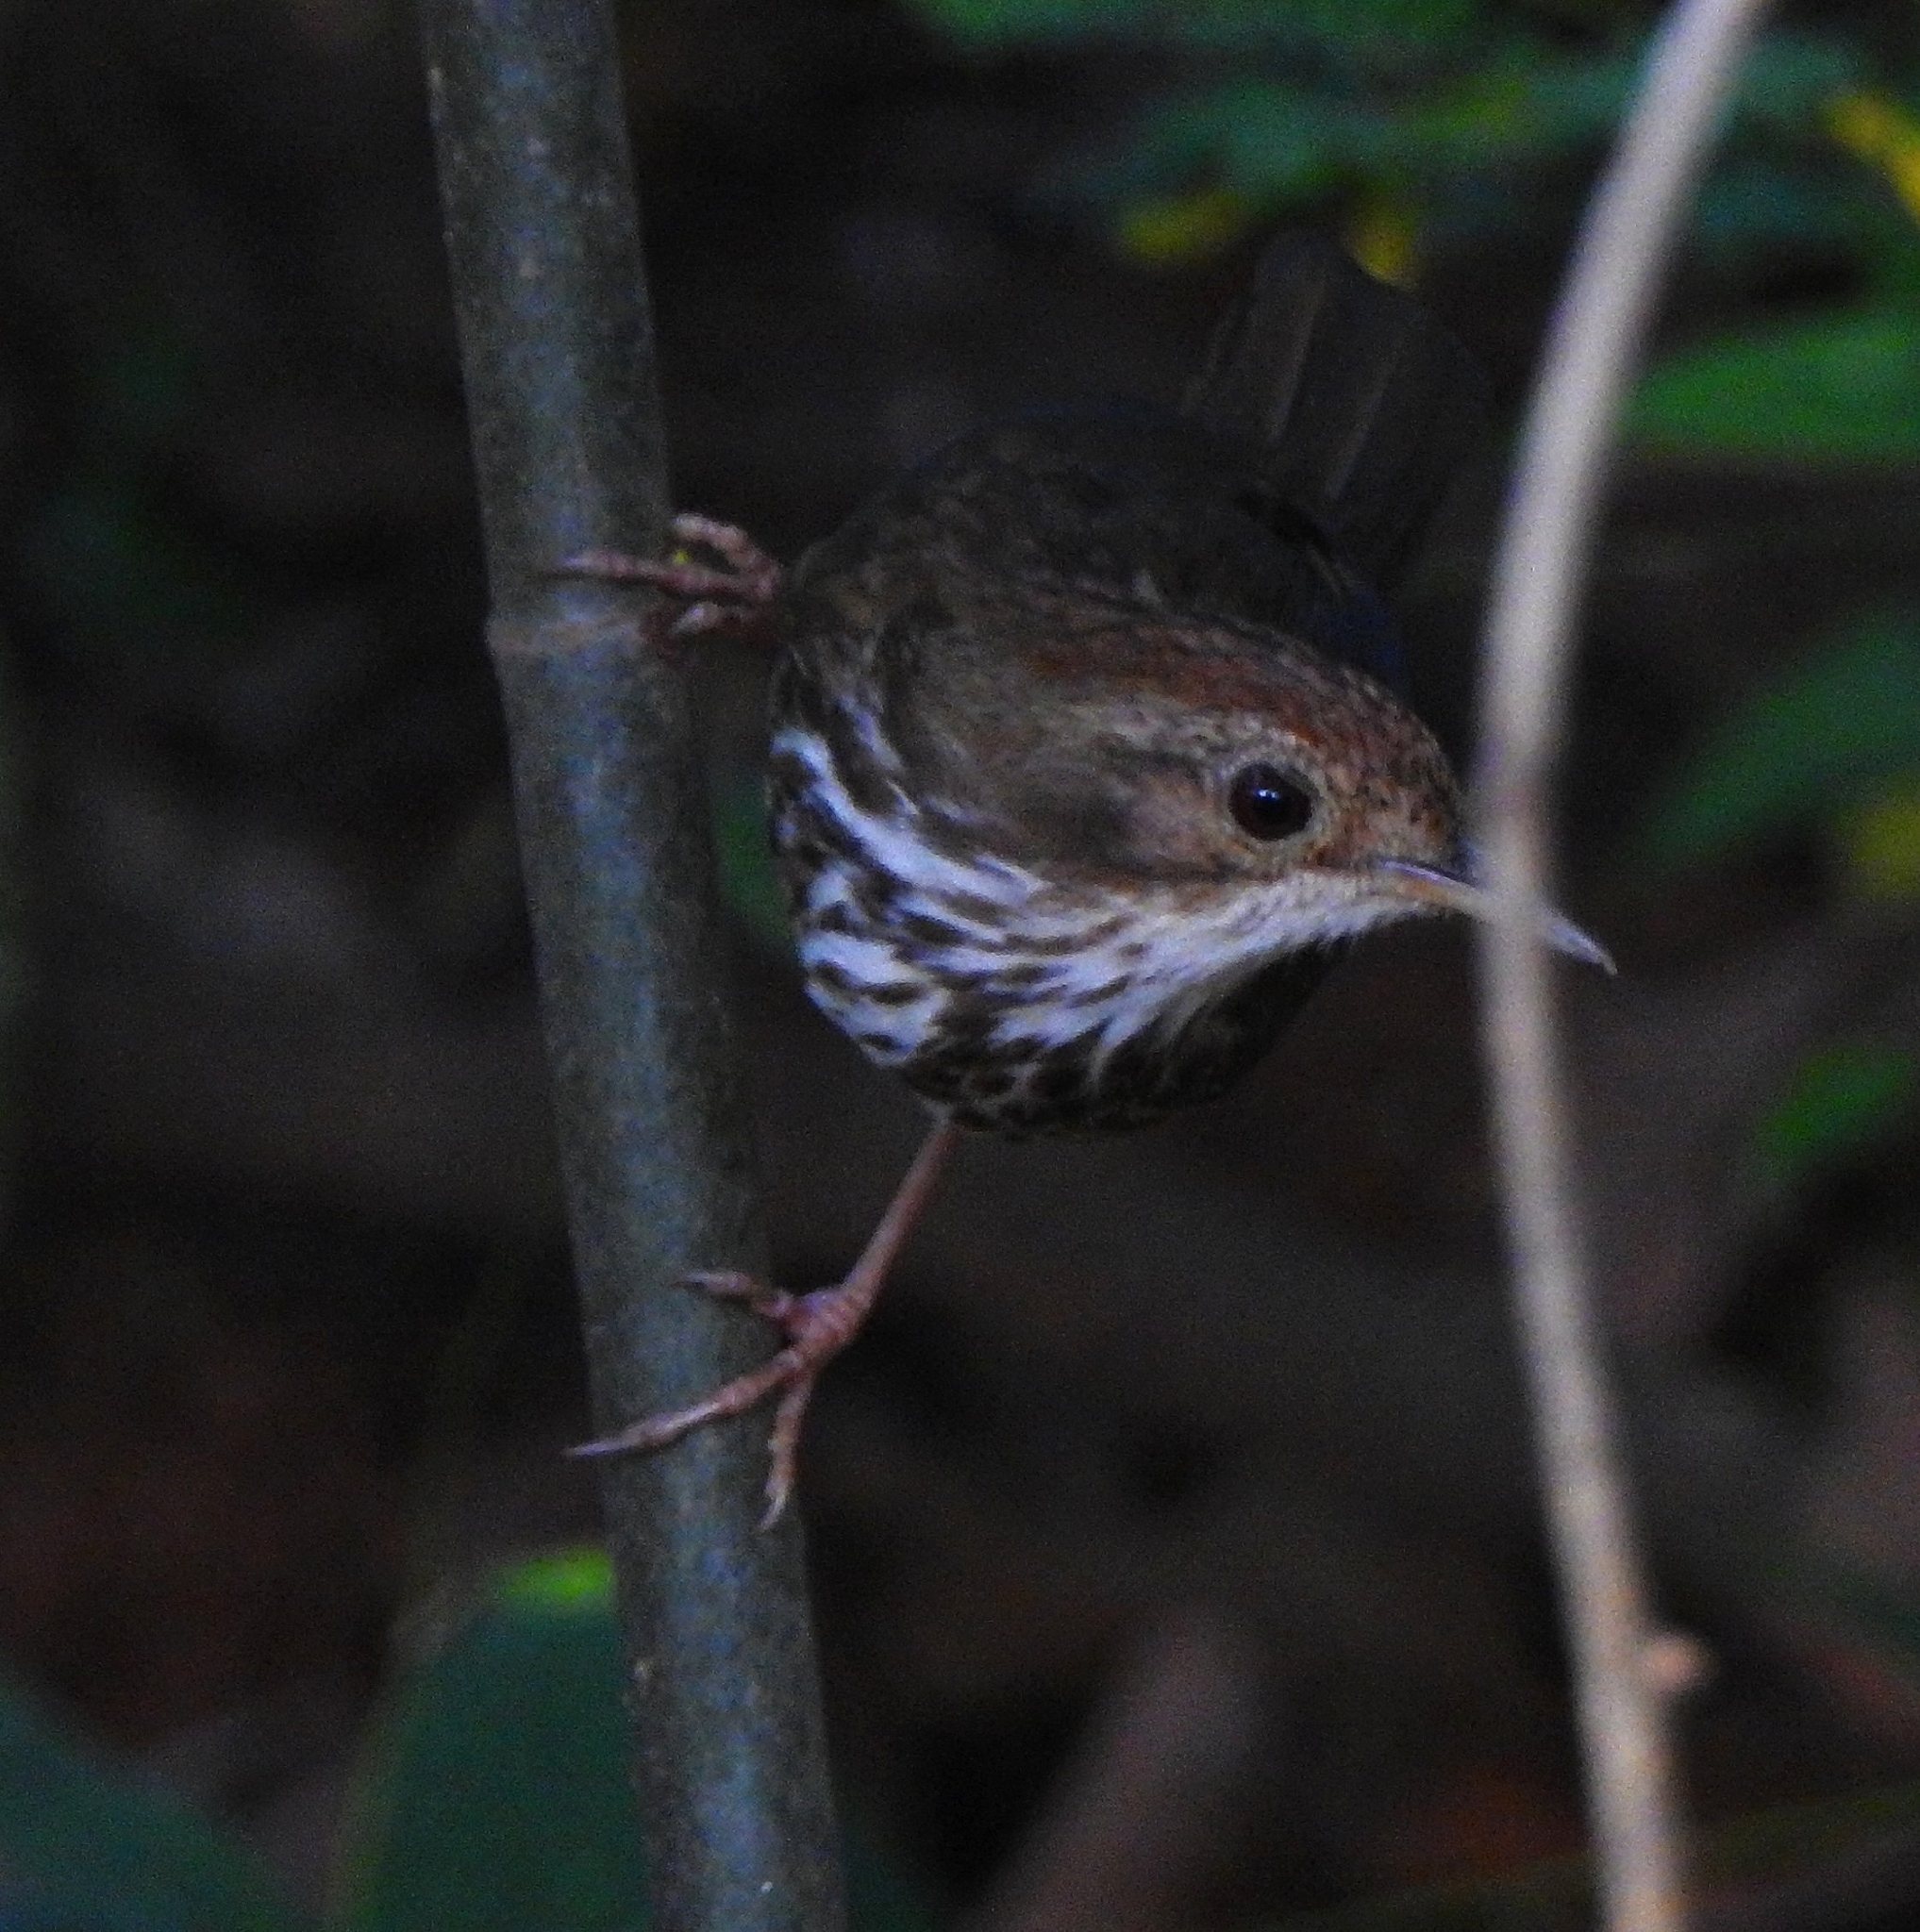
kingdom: Animalia
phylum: Chordata
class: Aves
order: Passeriformes
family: Pellorneidae
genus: Pellorneum
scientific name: Pellorneum ruficeps
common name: Puff-throated babbler
